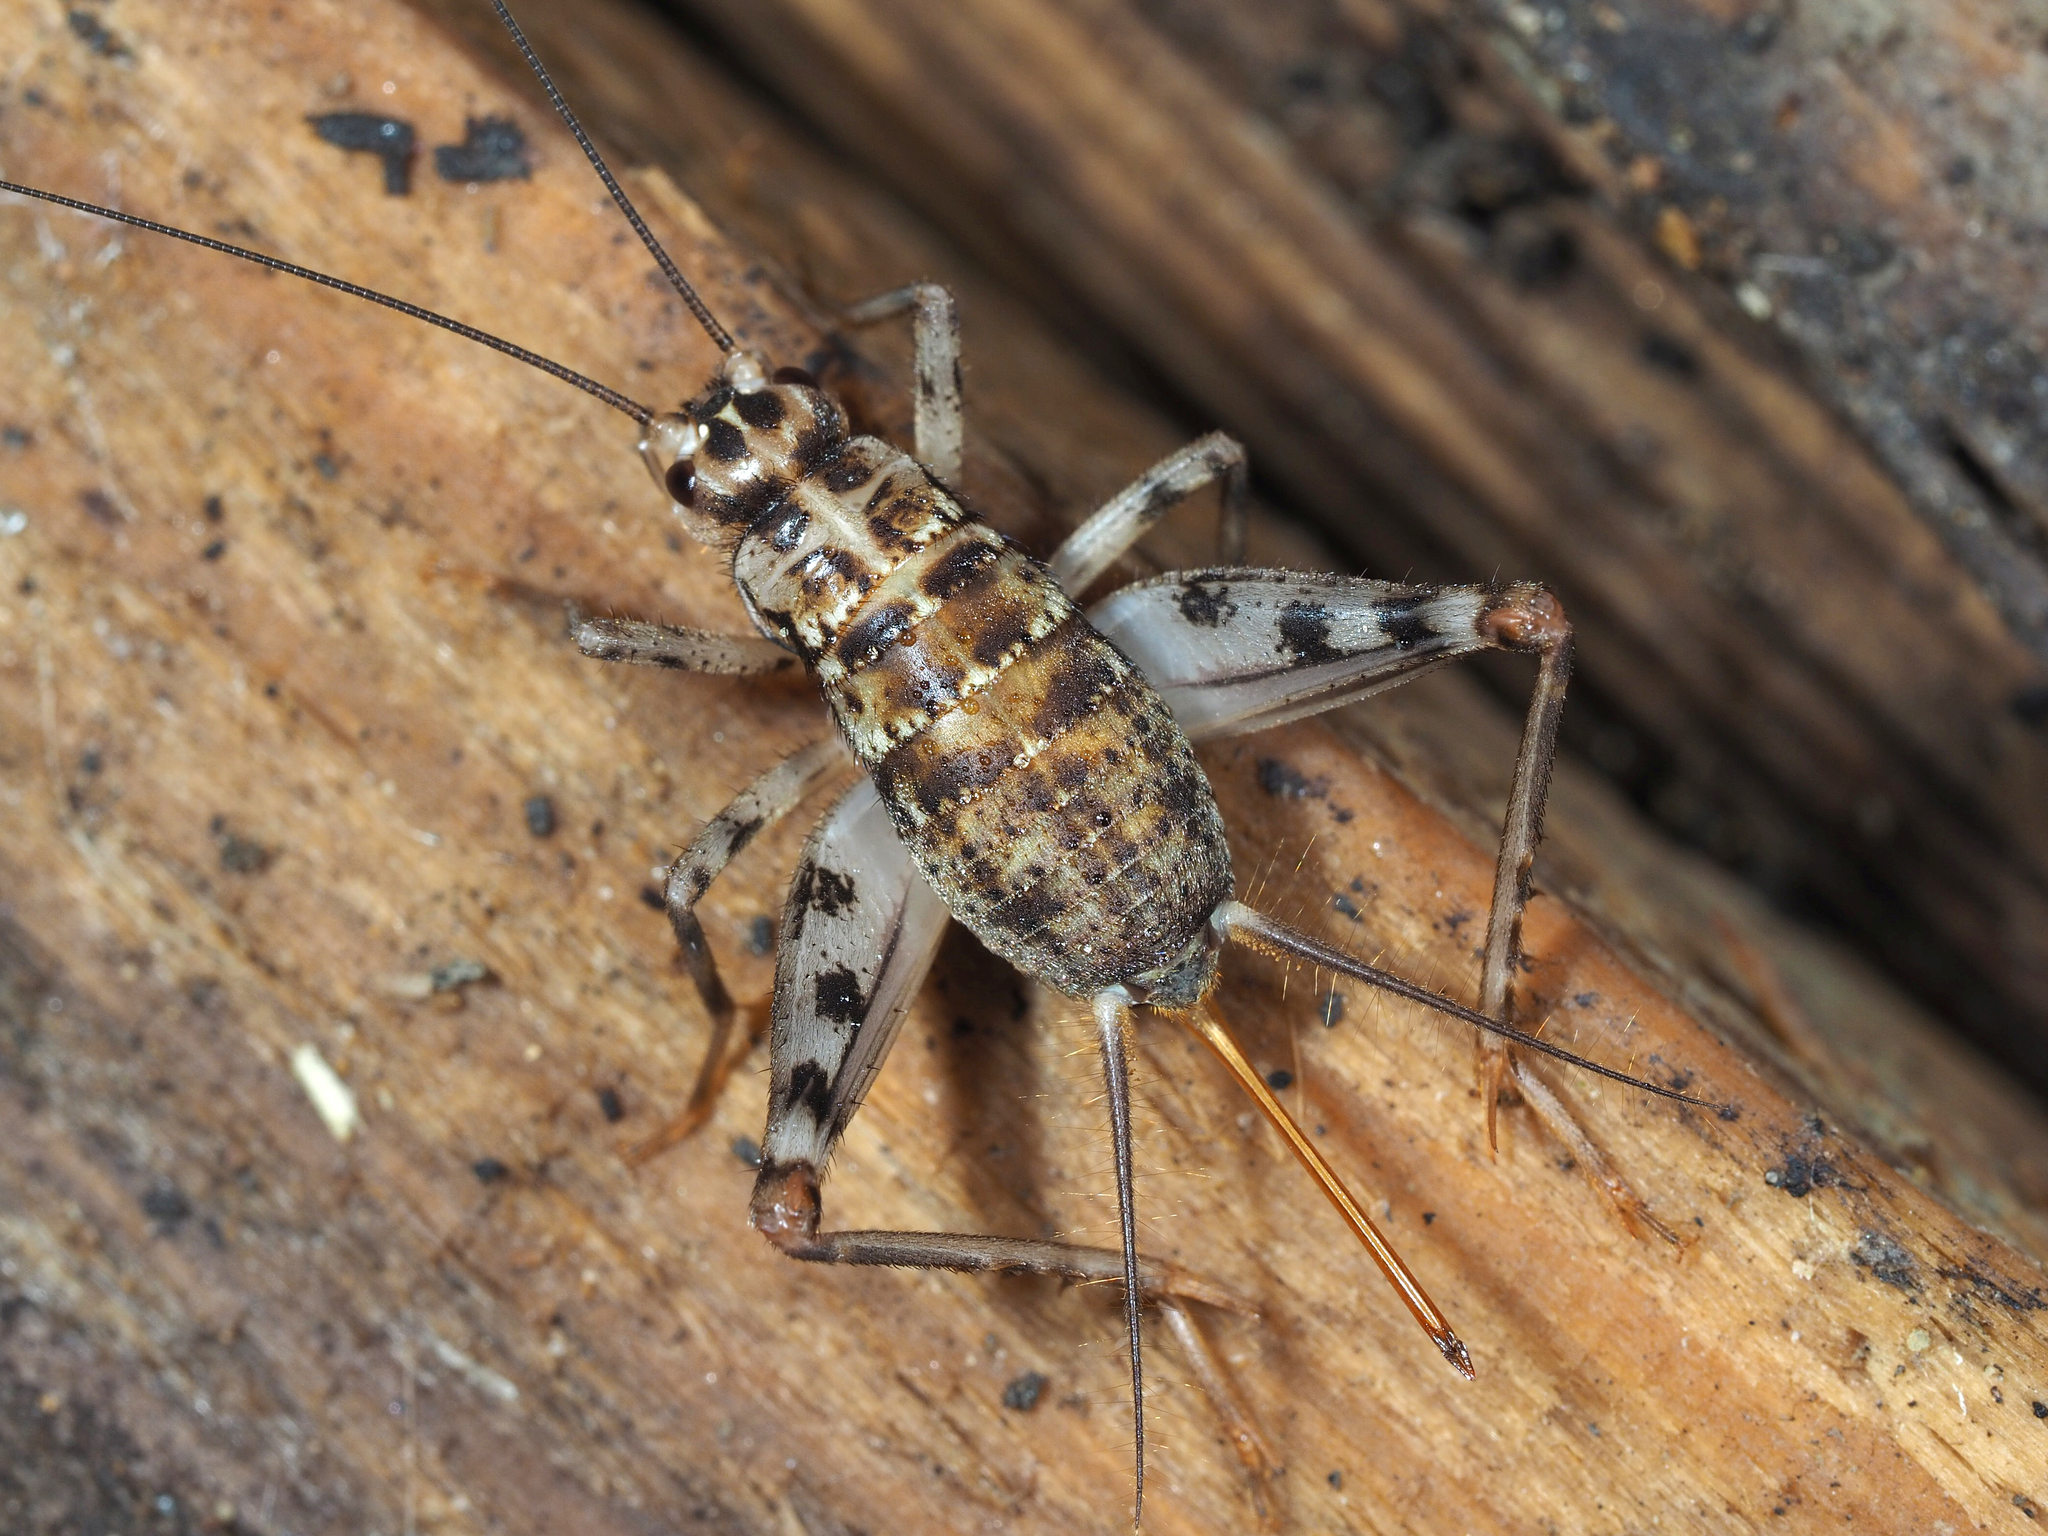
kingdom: Animalia
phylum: Arthropoda
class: Insecta
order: Orthoptera
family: Gryllidae
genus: Gryllomorpha
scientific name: Gryllomorpha dalmatina
